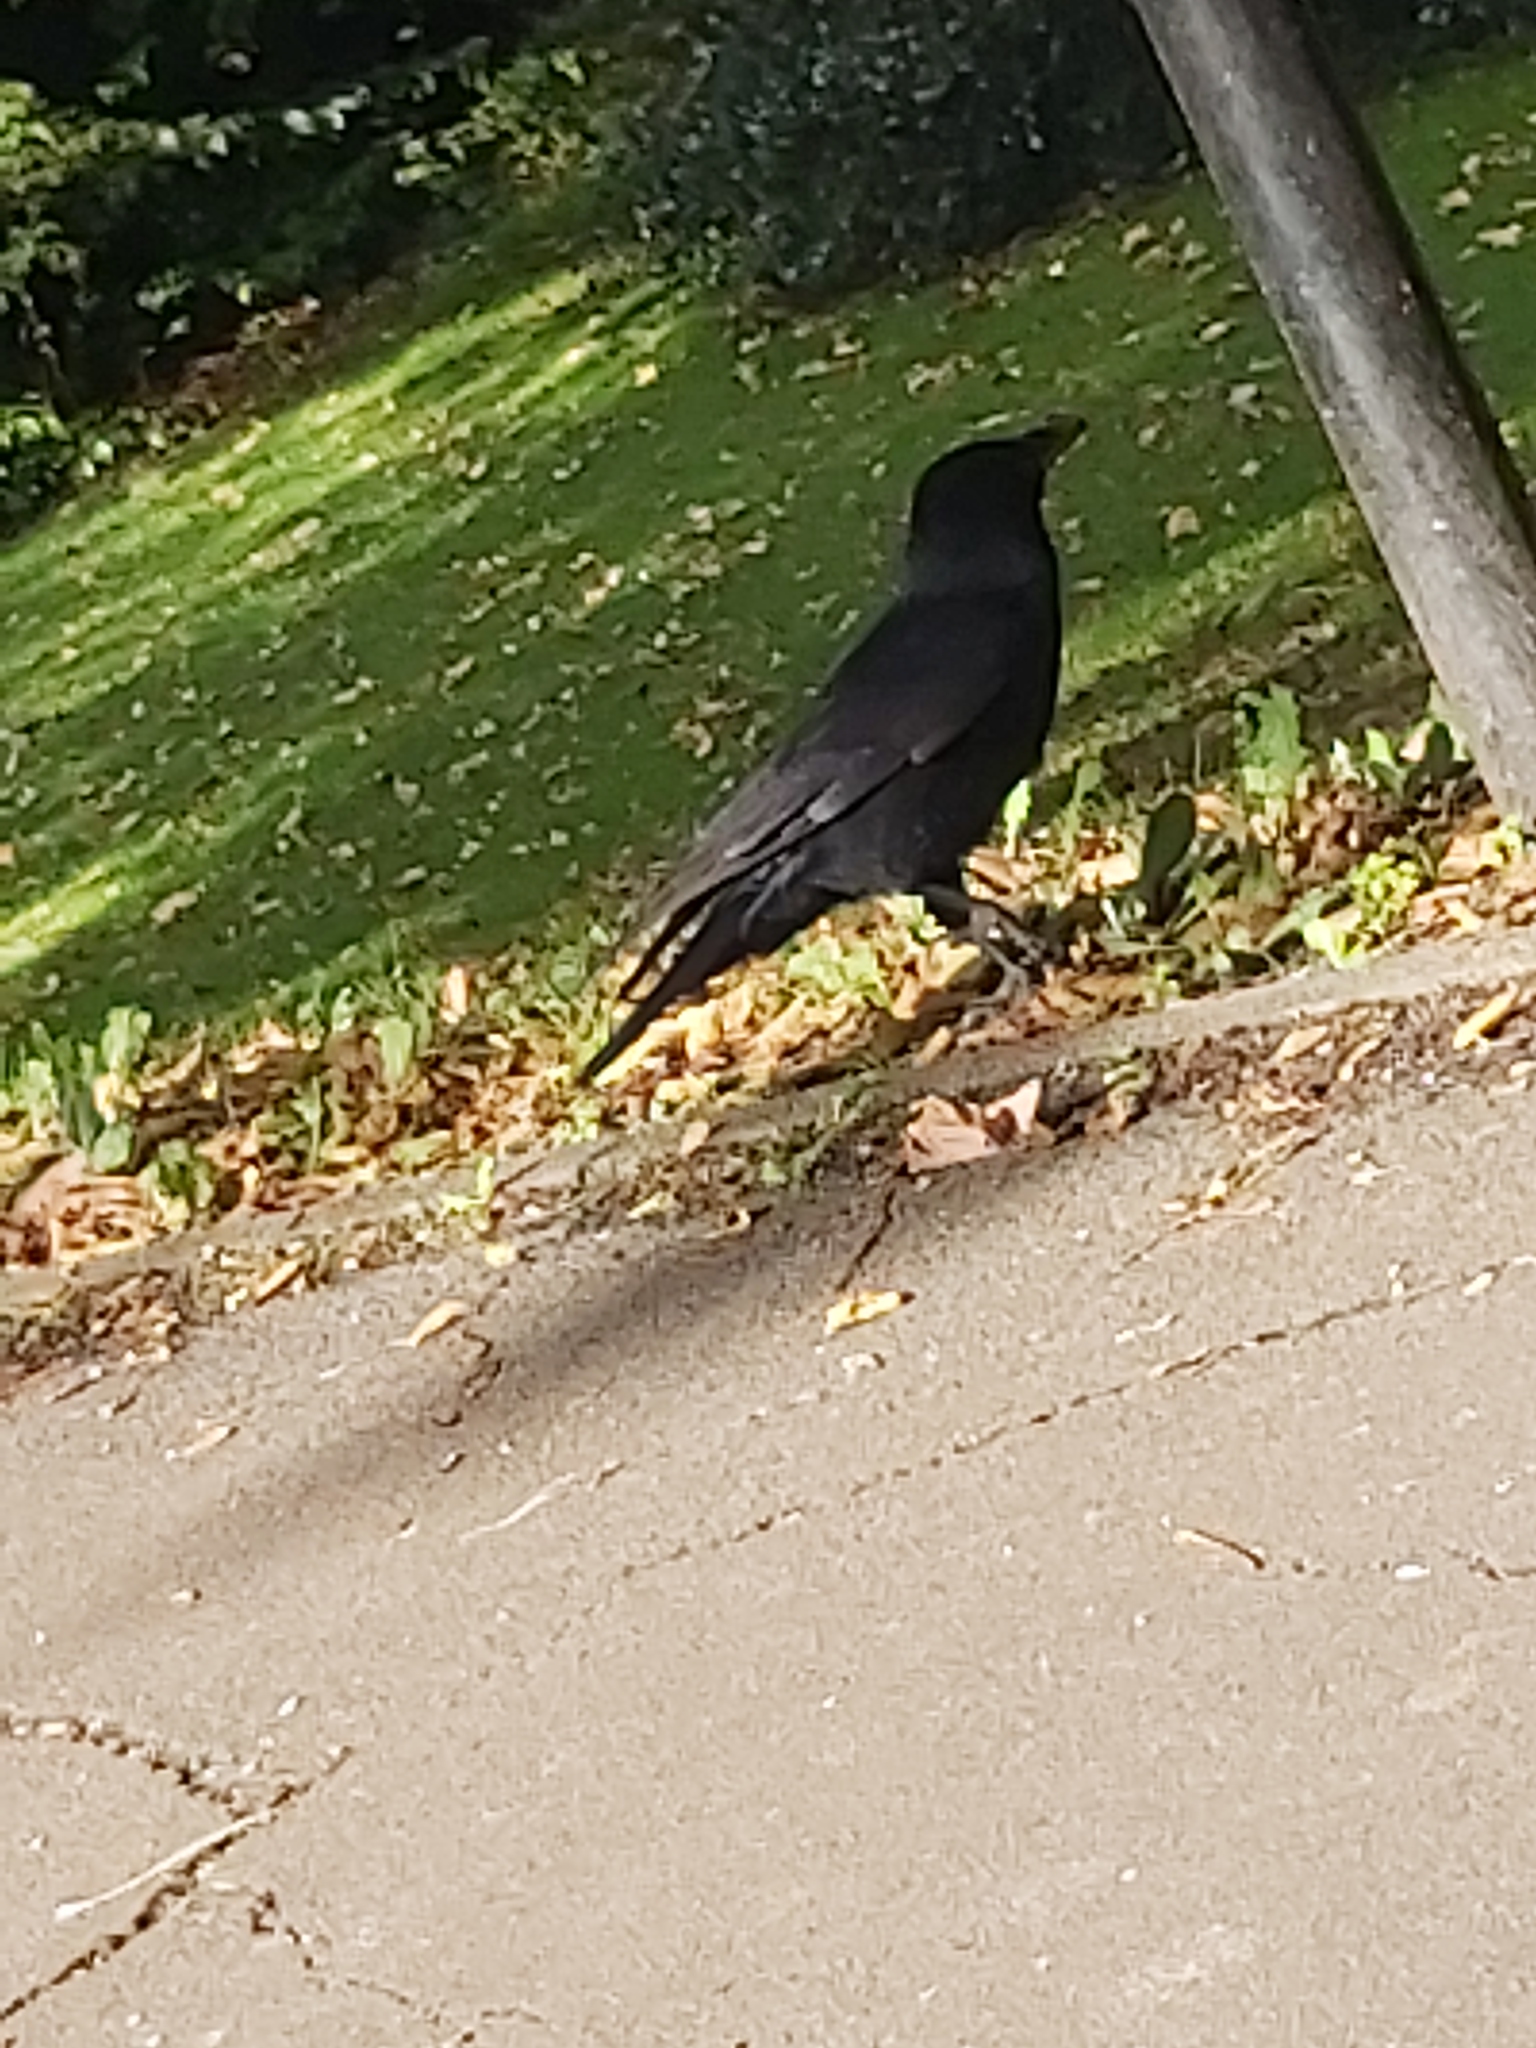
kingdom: Animalia
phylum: Chordata
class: Aves
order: Passeriformes
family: Corvidae
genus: Corvus
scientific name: Corvus corone
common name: Carrion crow
